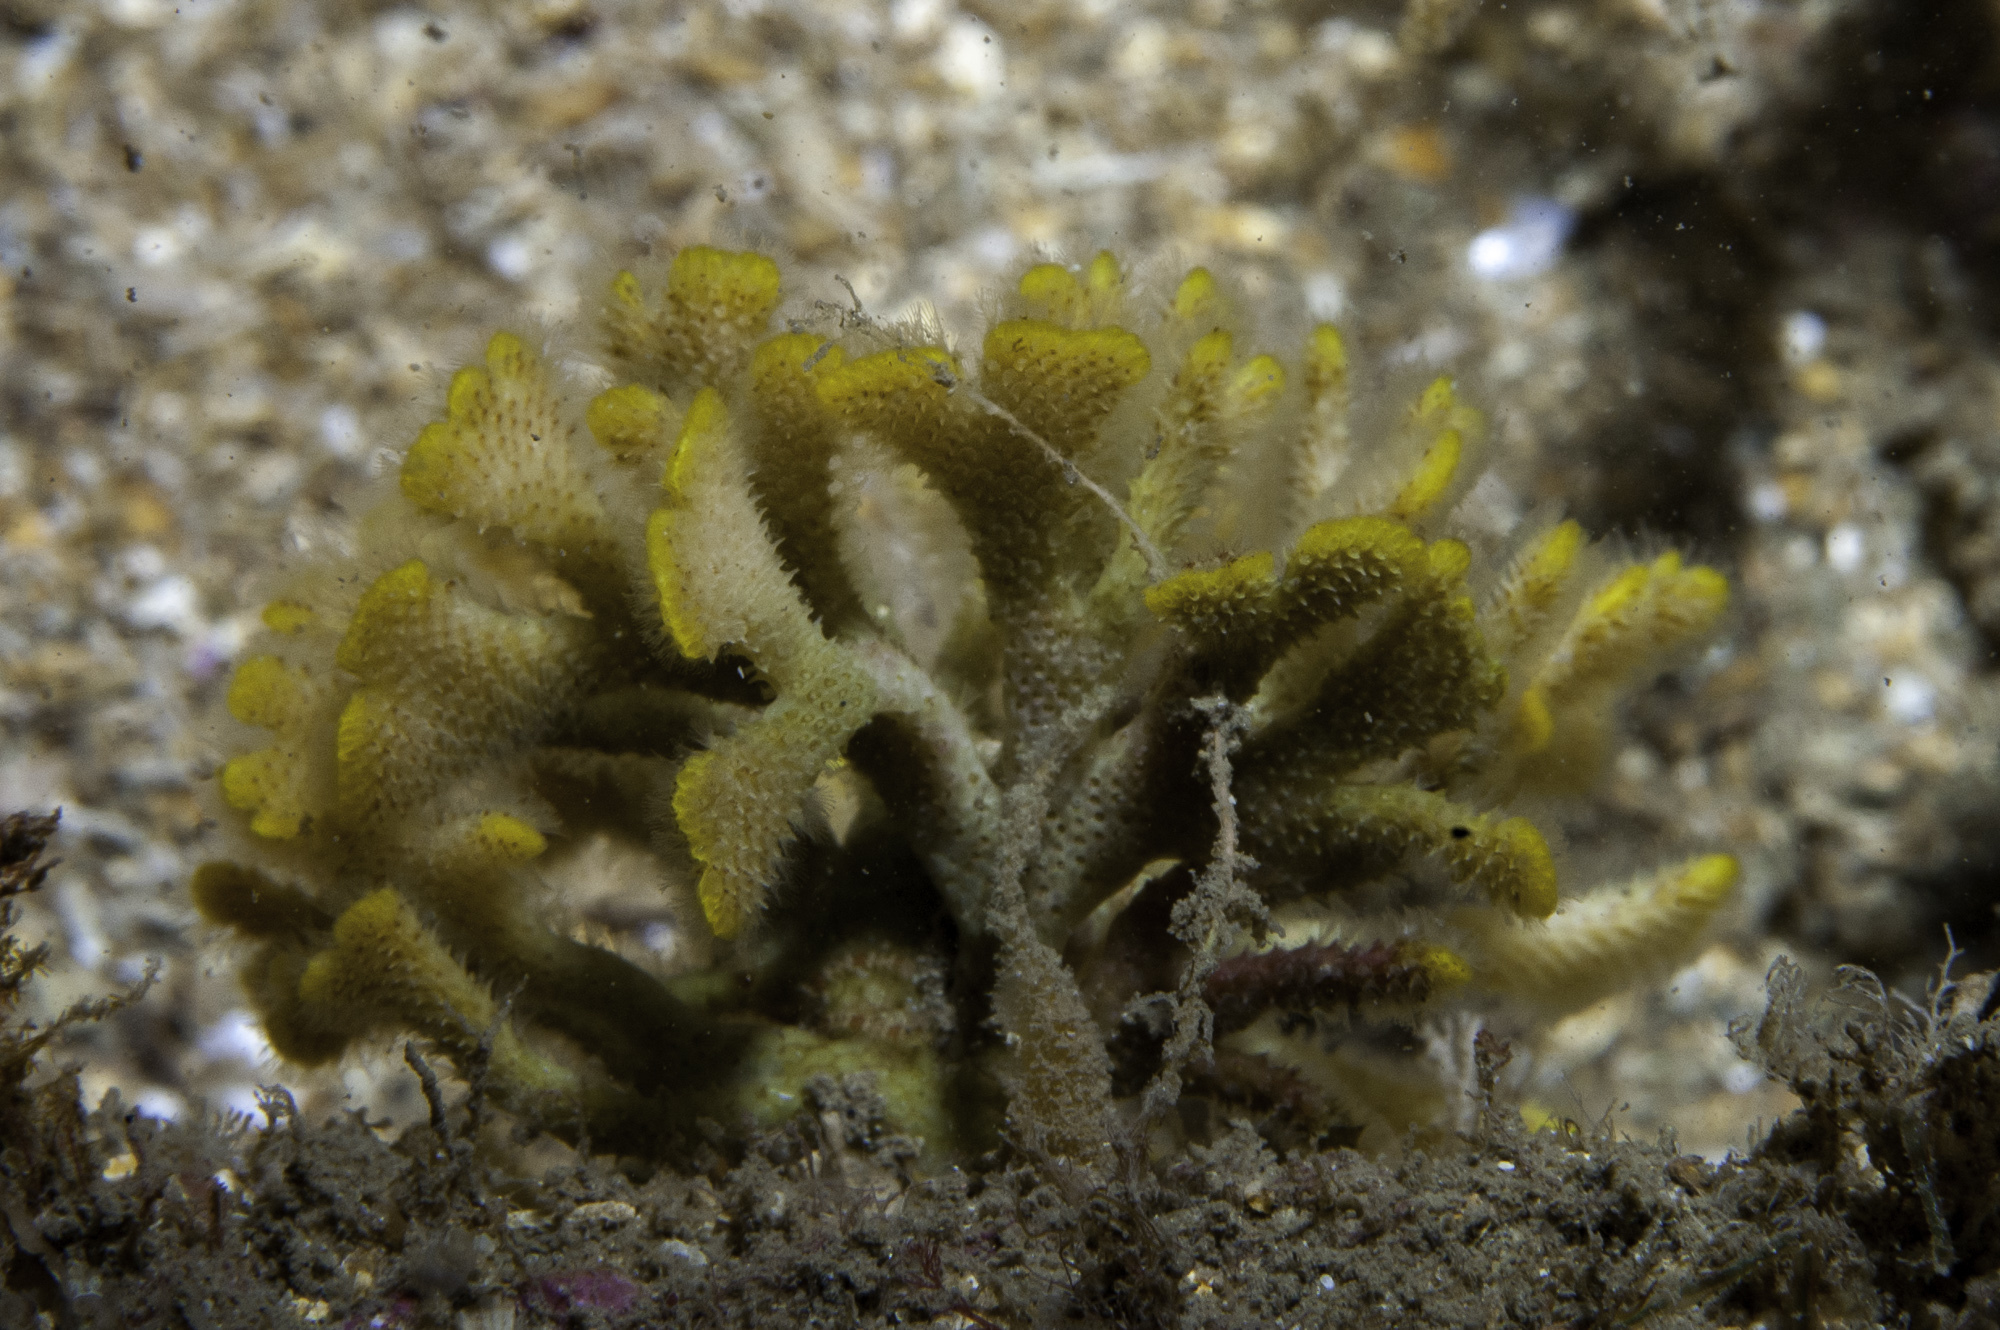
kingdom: Animalia
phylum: Bryozoa
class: Gymnolaemata
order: Cheilostomatida
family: Bryocryptellidae
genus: Palmiskenea
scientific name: Palmiskenea skenei
